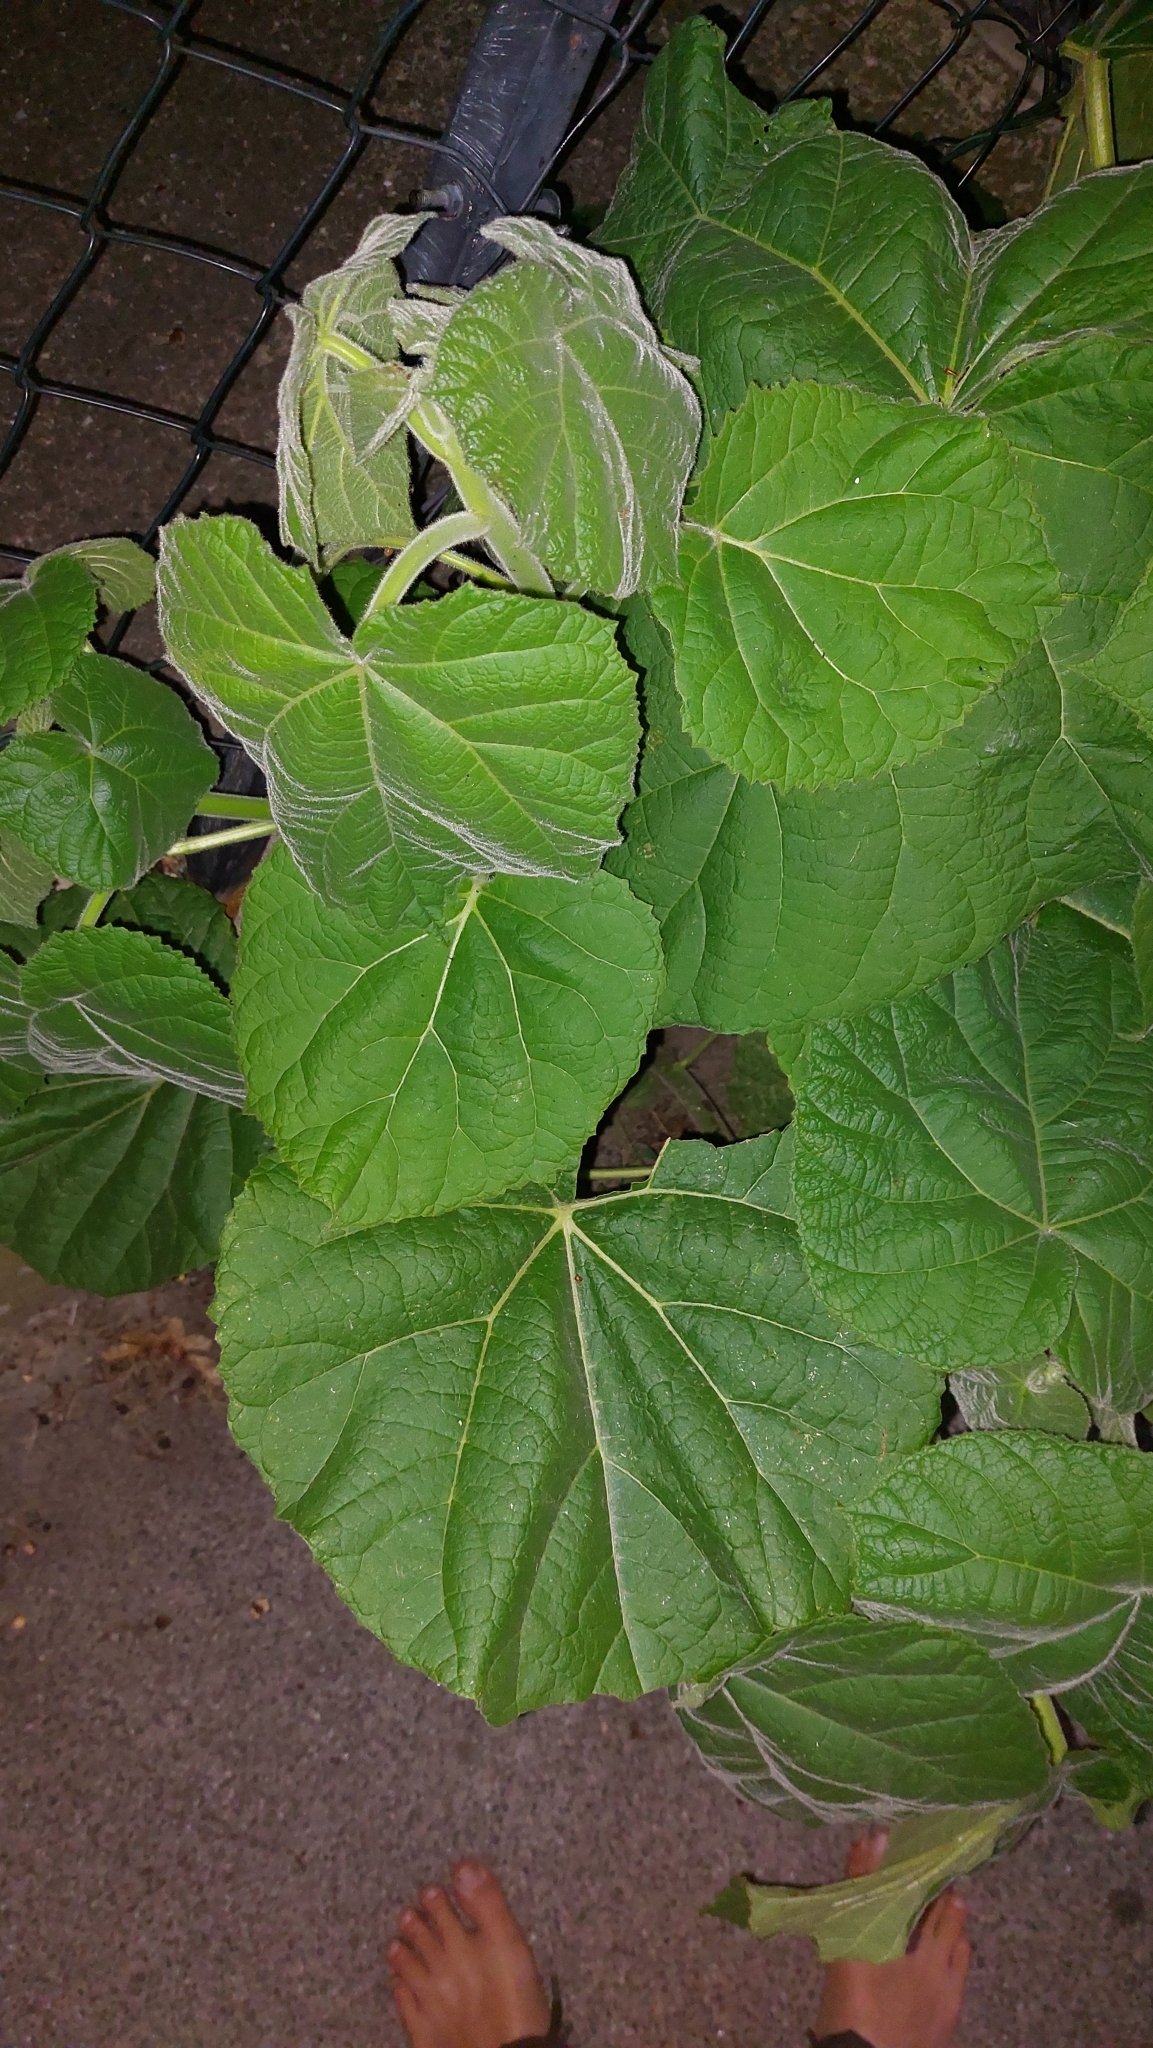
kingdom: Plantae
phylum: Tracheophyta
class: Magnoliopsida
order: Lamiales
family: Paulowniaceae
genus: Paulownia
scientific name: Paulownia tomentosa
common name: Foxglove-tree
